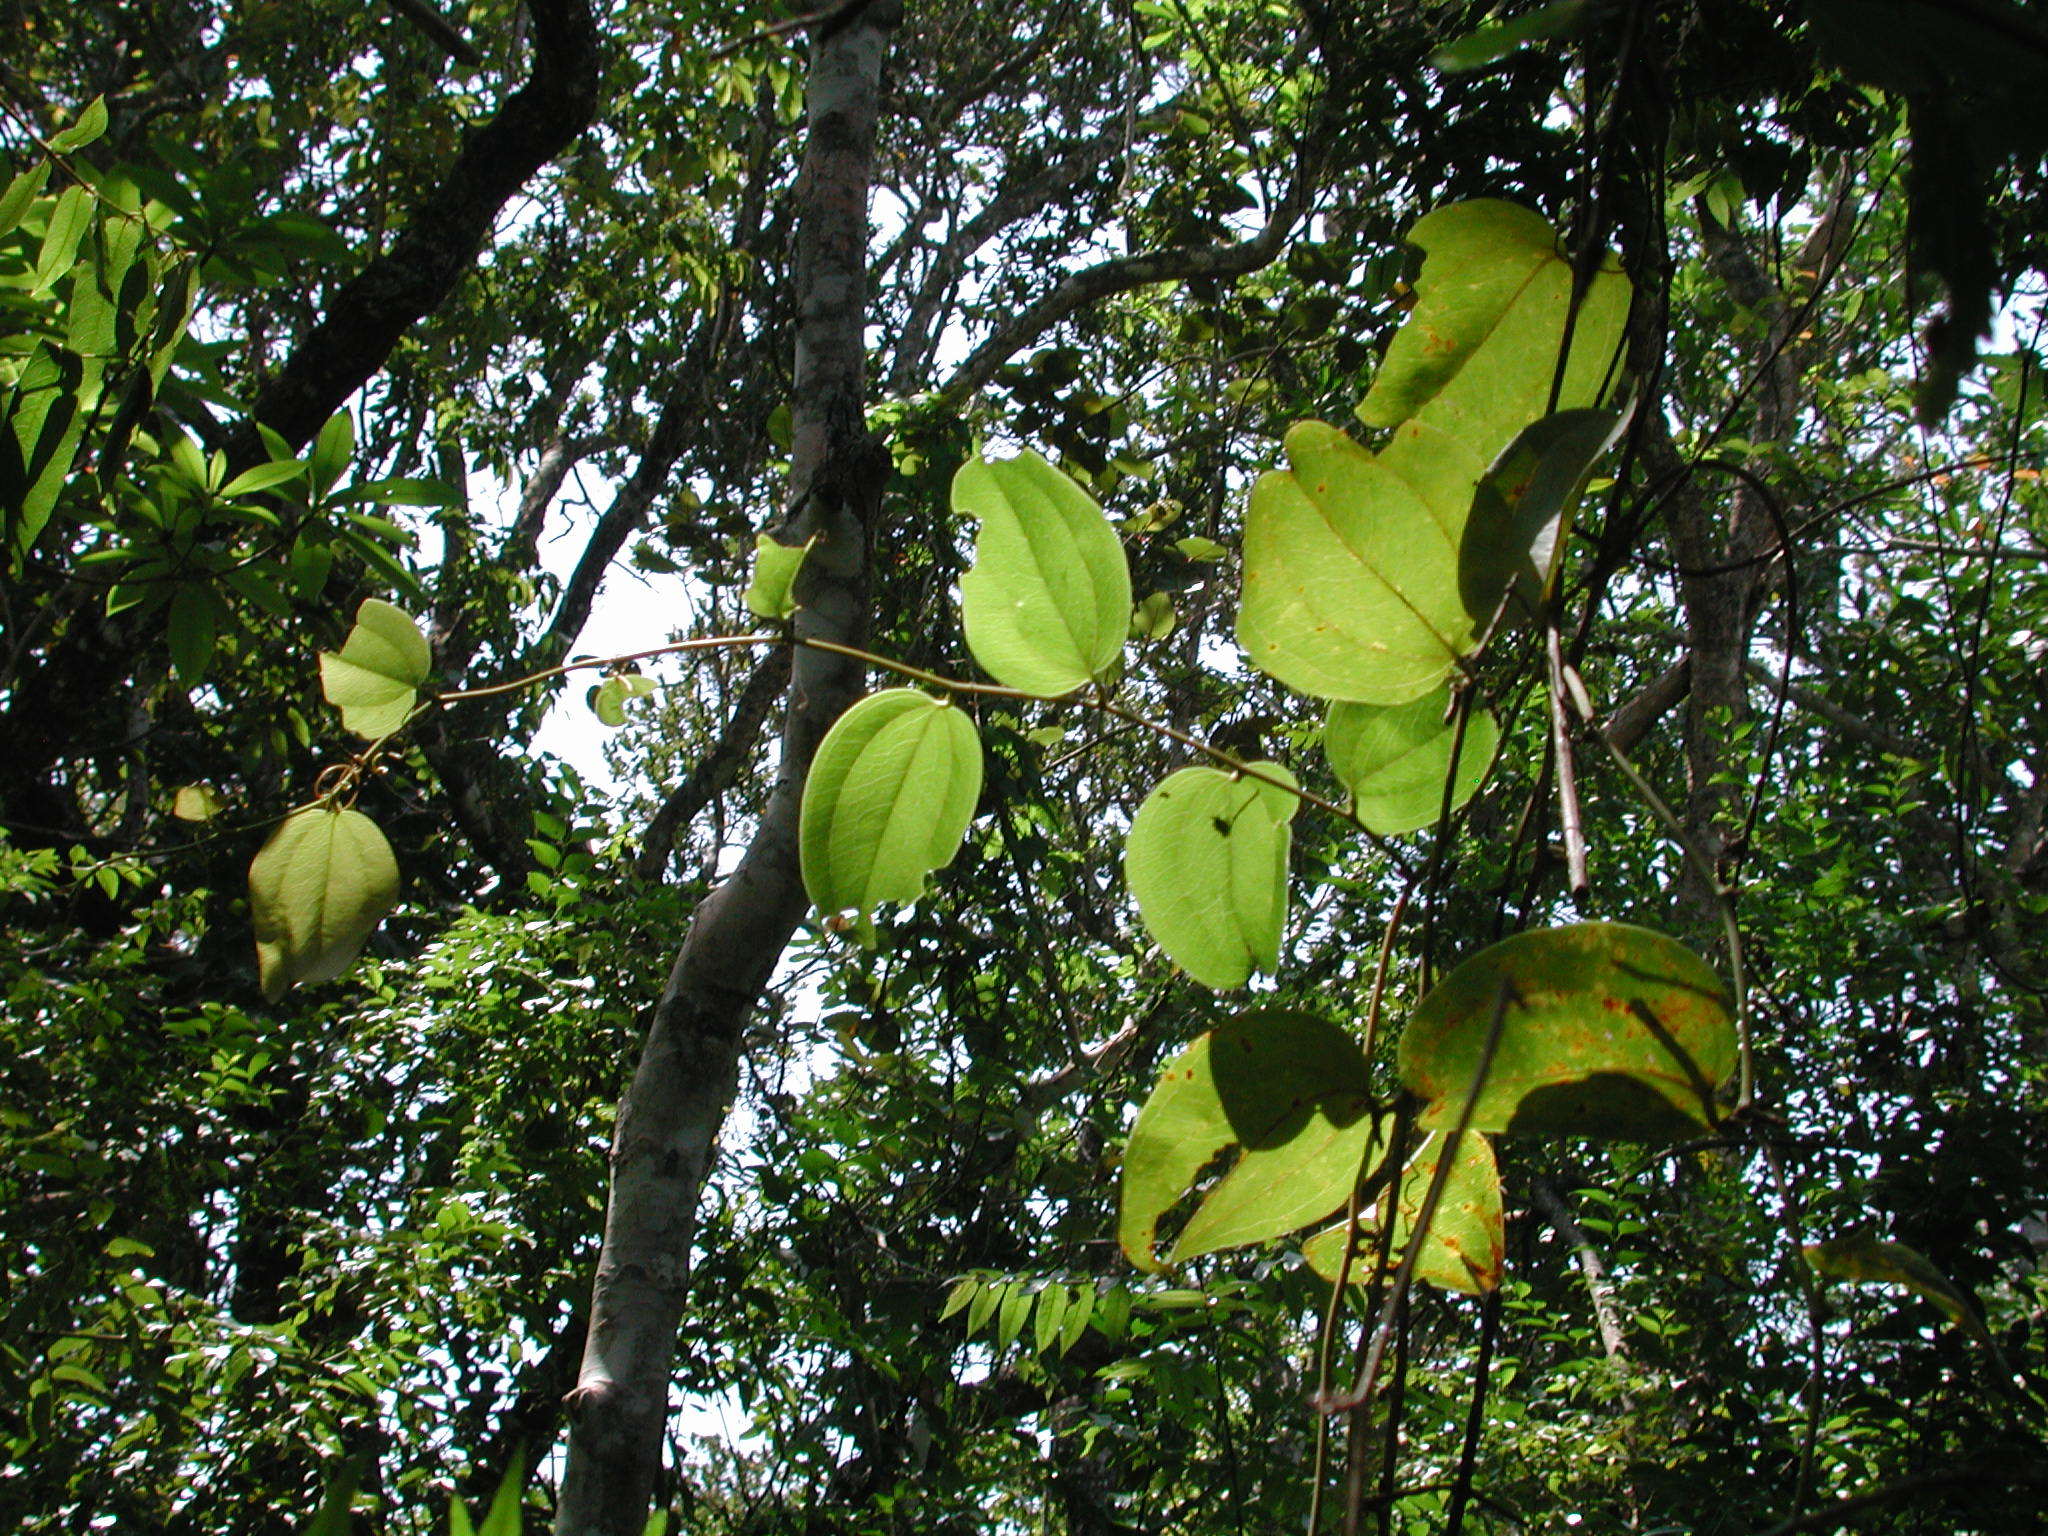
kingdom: Plantae
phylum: Tracheophyta
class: Liliopsida
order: Liliales
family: Smilacaceae
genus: Smilax
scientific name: Smilax anceps
